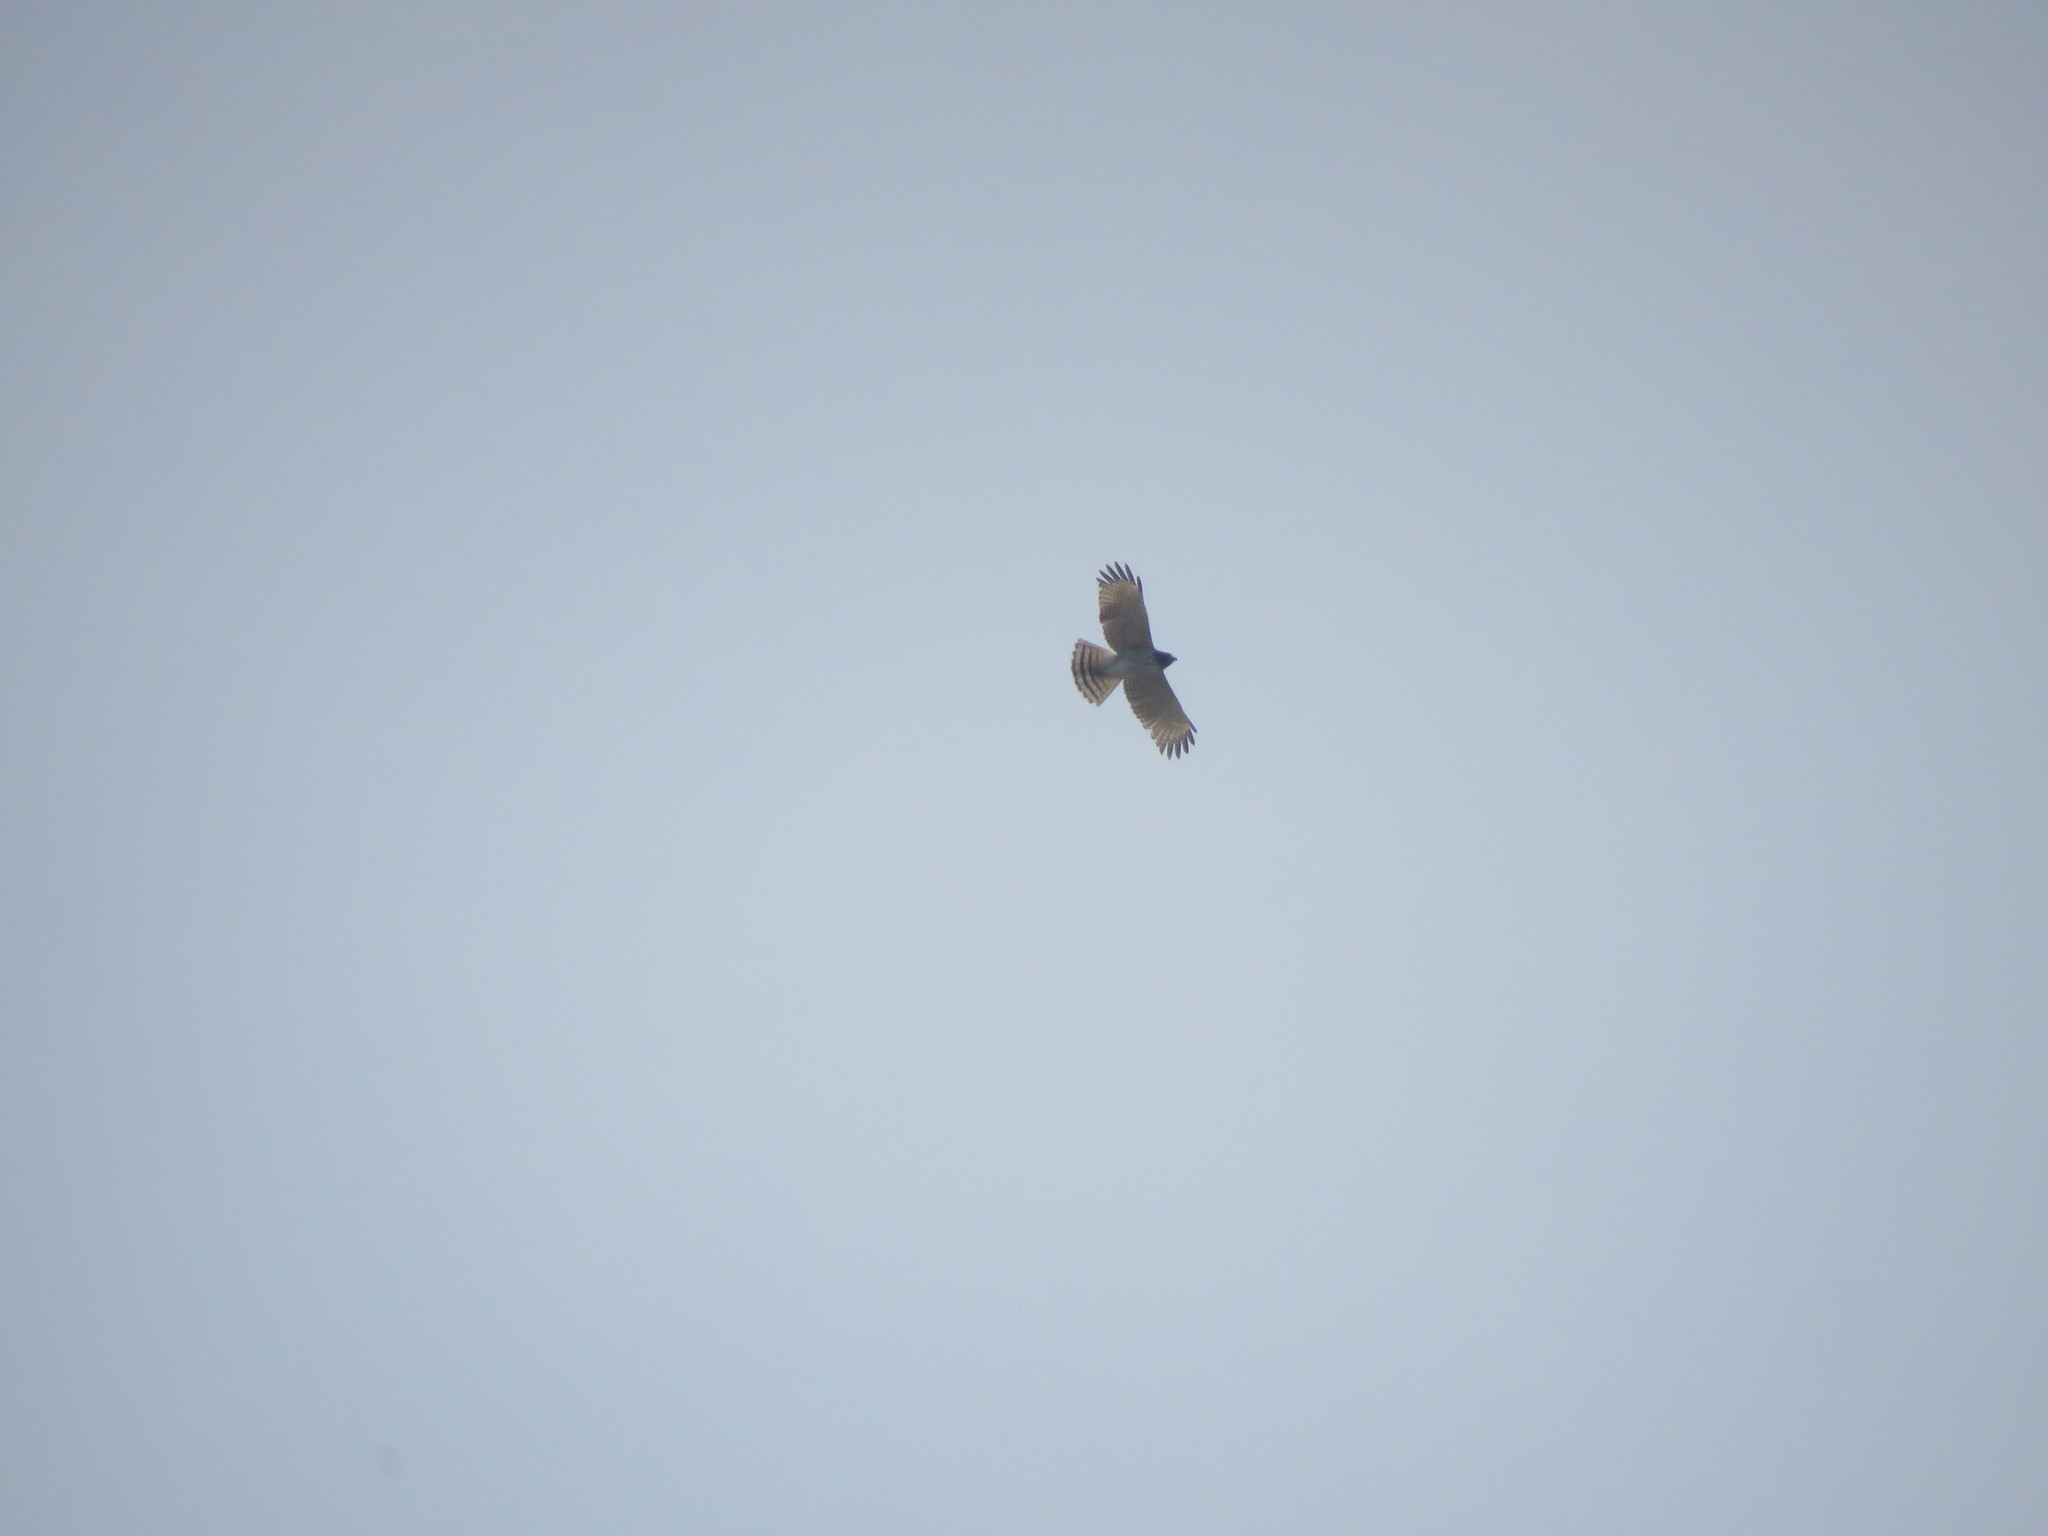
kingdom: Animalia
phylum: Chordata
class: Aves
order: Accipitriformes
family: Accipitridae
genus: Rupornis
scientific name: Rupornis magnirostris
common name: Roadside hawk
